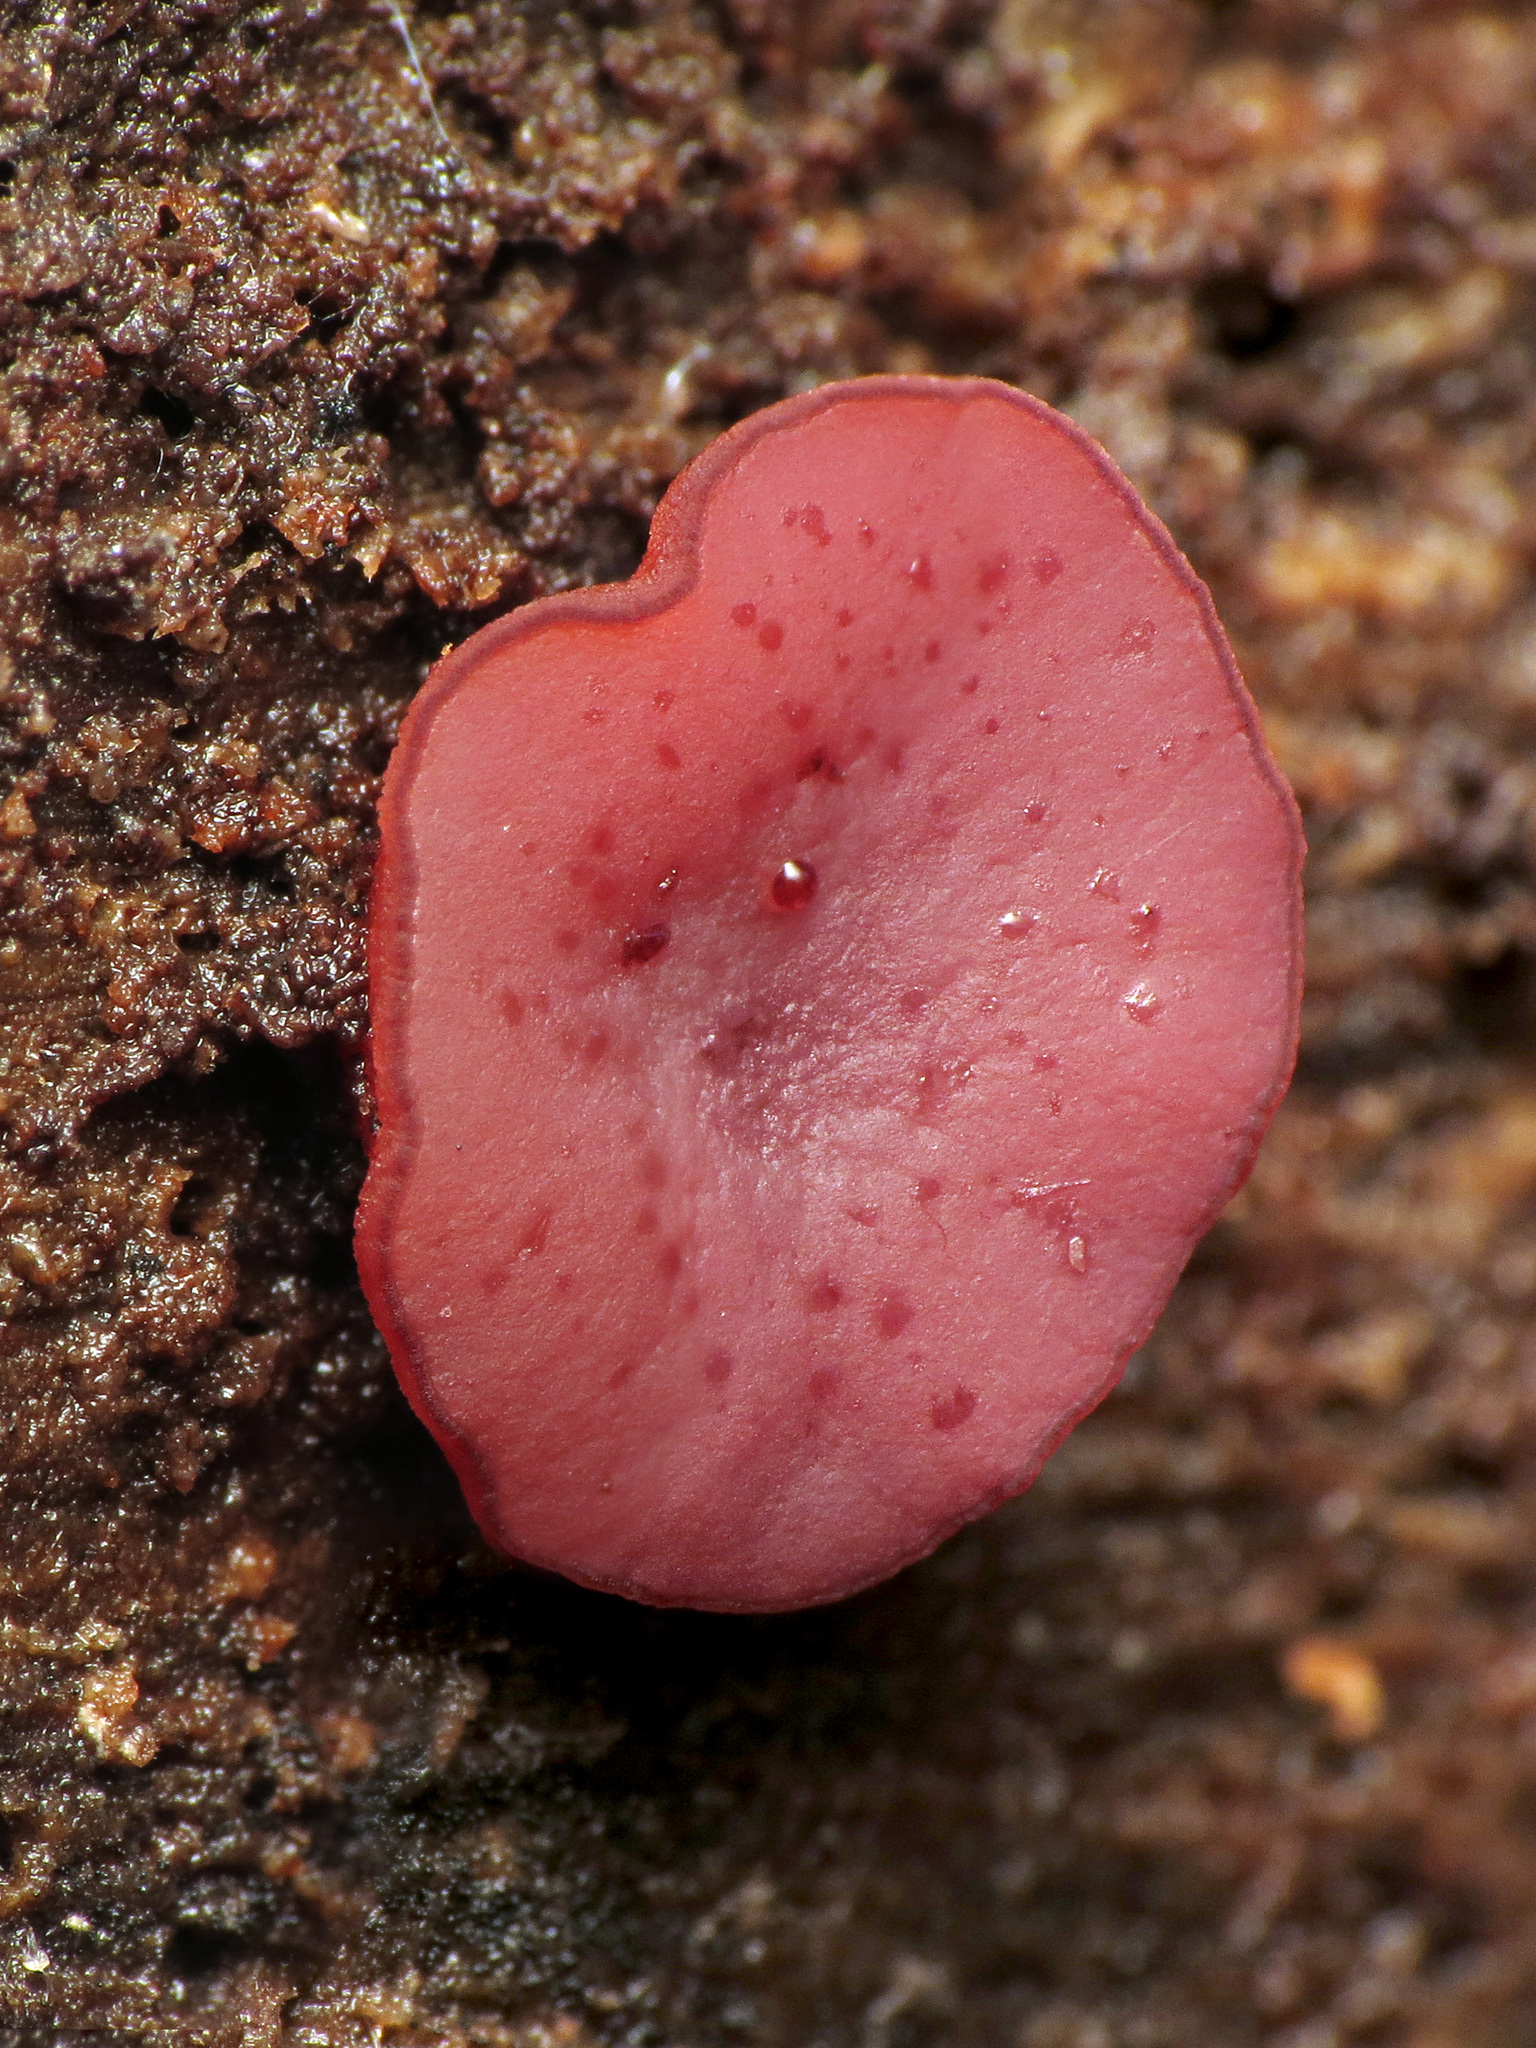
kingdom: Fungi
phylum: Ascomycota
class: Leotiomycetes
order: Helotiales
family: Gelatinodiscaceae
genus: Ascocoryne
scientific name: Ascocoryne sarcoides
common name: Purple jellydisc
